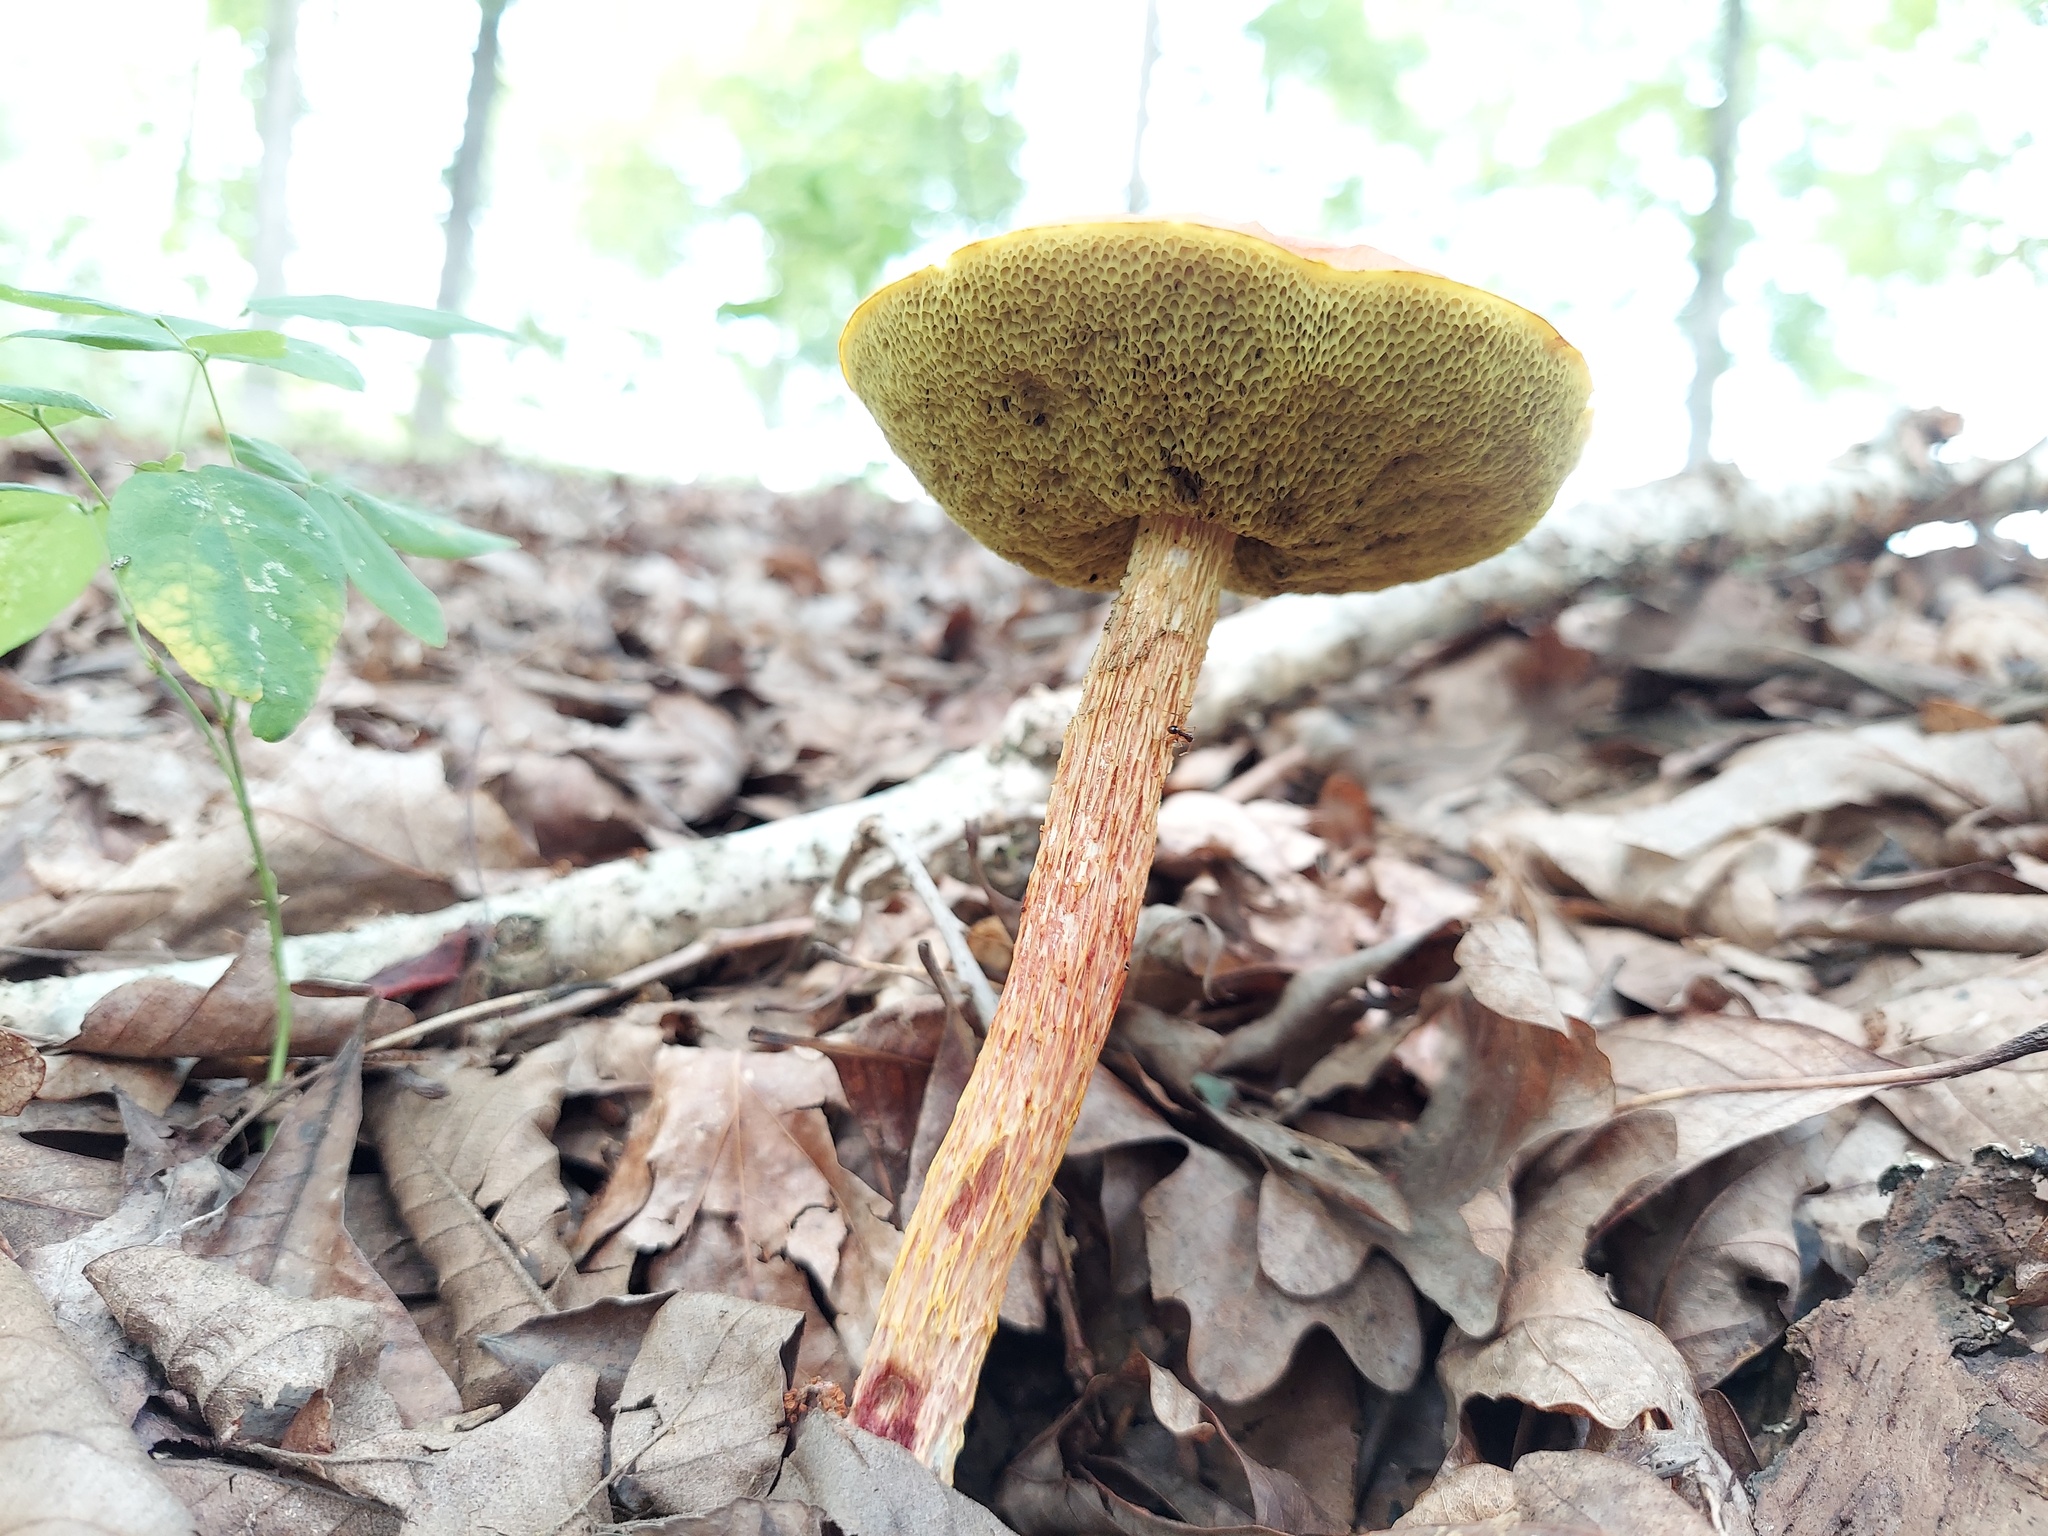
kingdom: Fungi
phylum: Basidiomycota
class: Agaricomycetes
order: Boletales
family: Boletaceae
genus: Aureoboletus
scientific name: Aureoboletus betula
